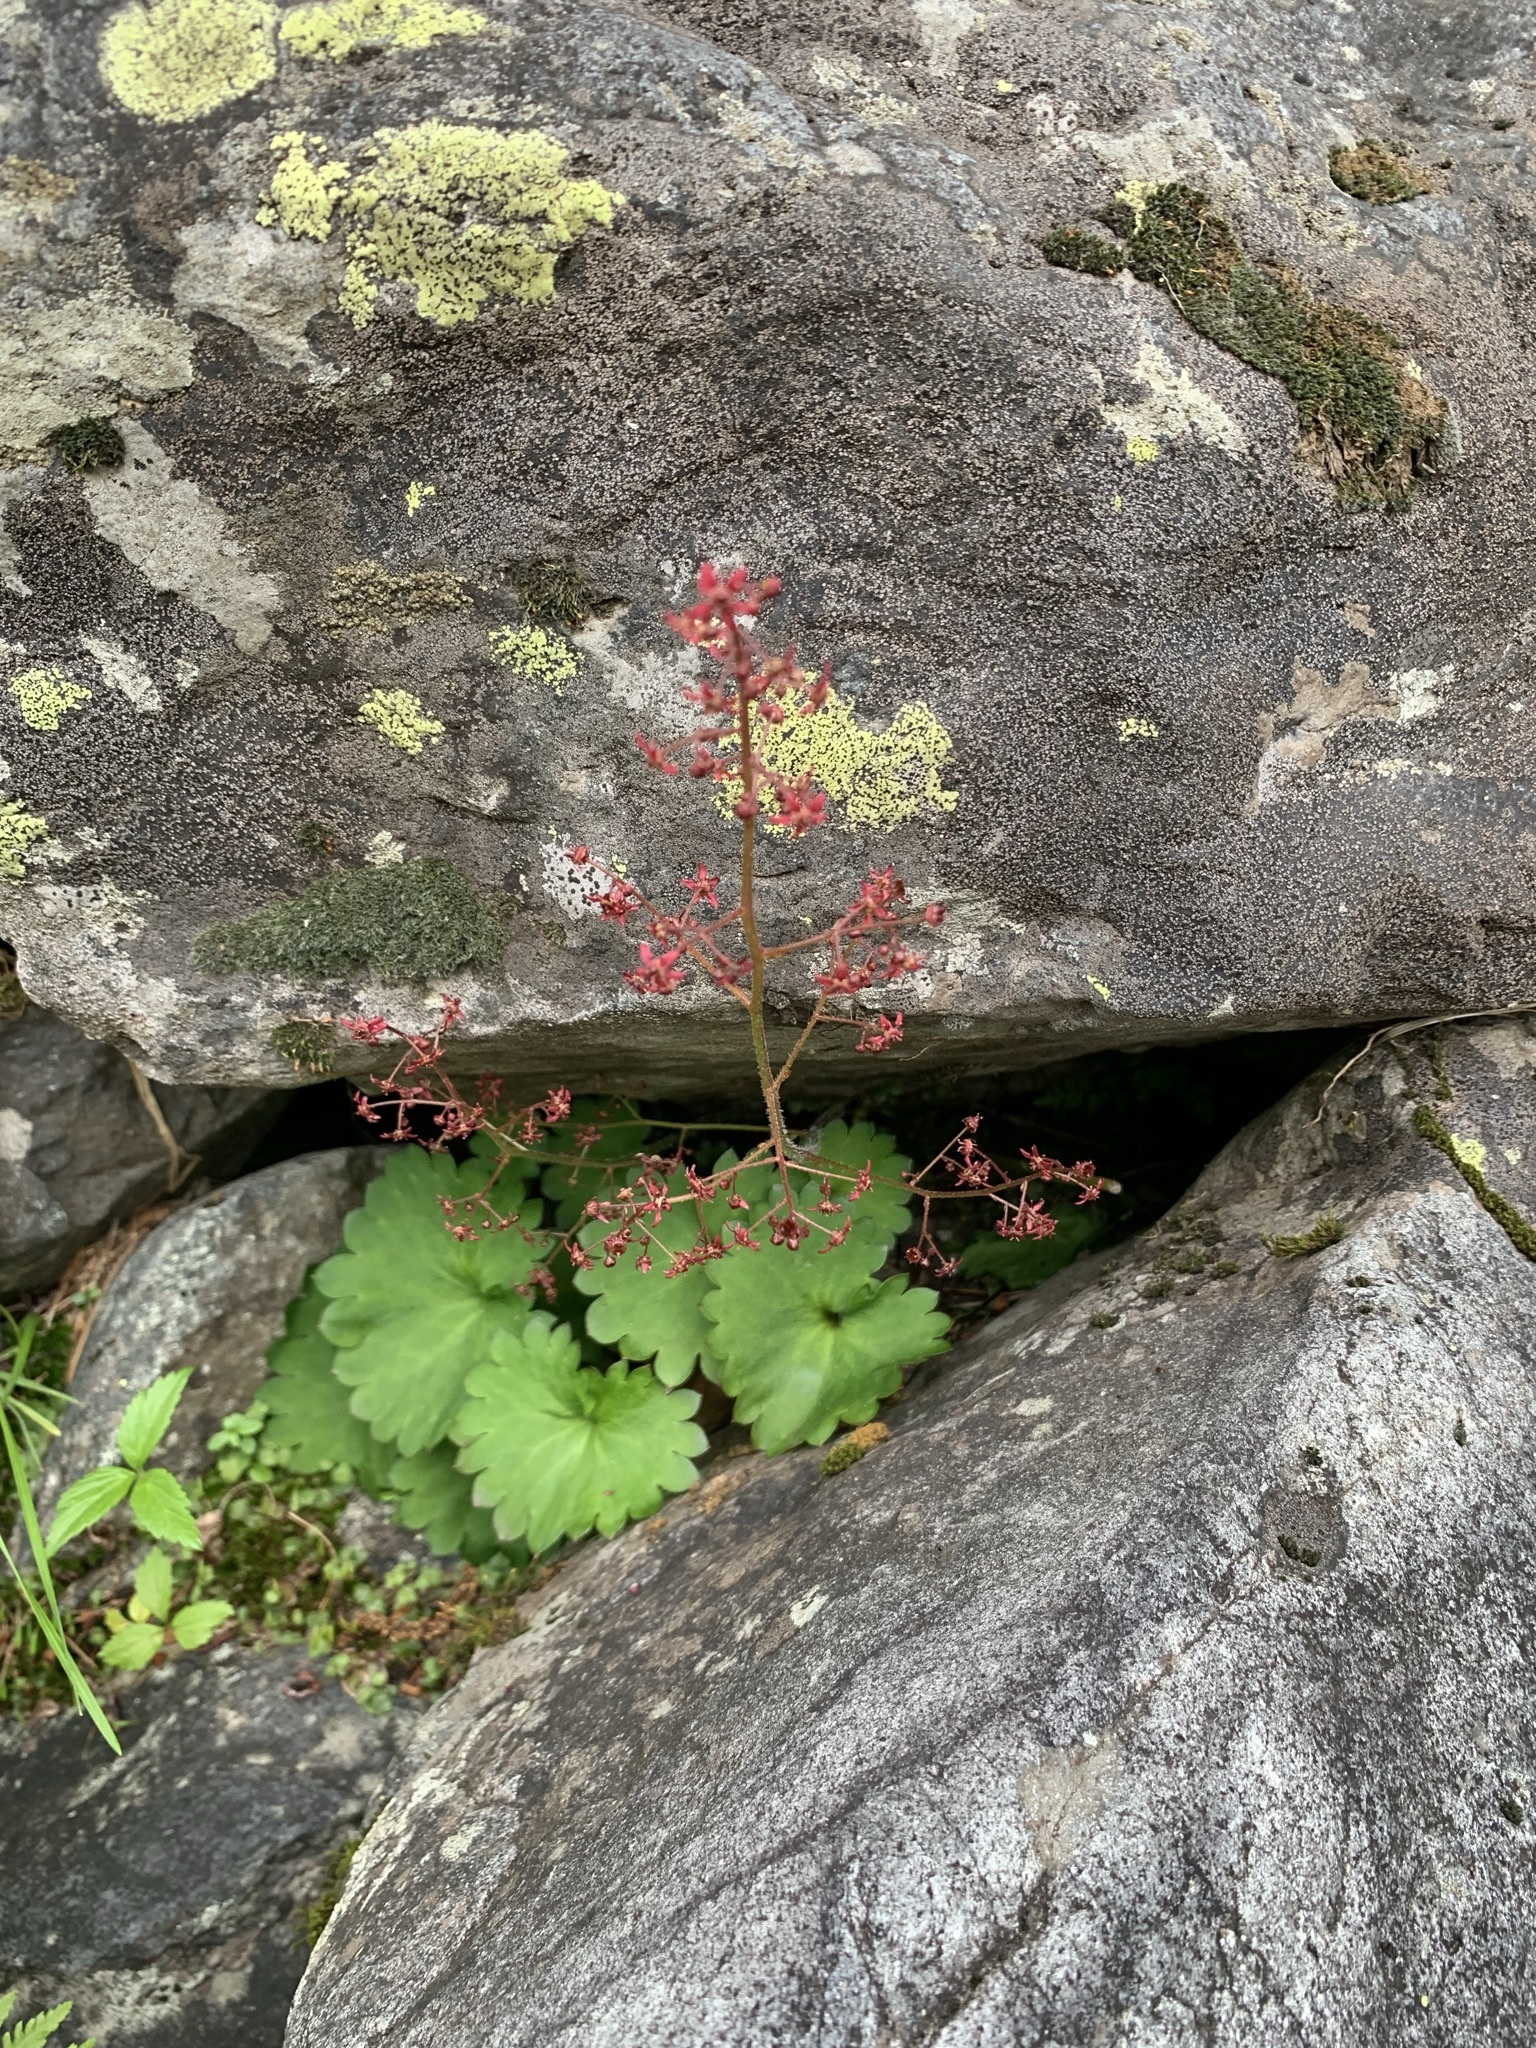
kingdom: Plantae
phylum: Tracheophyta
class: Magnoliopsida
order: Saxifragales
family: Saxifragaceae
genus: Micranthes
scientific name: Micranthes fusca
